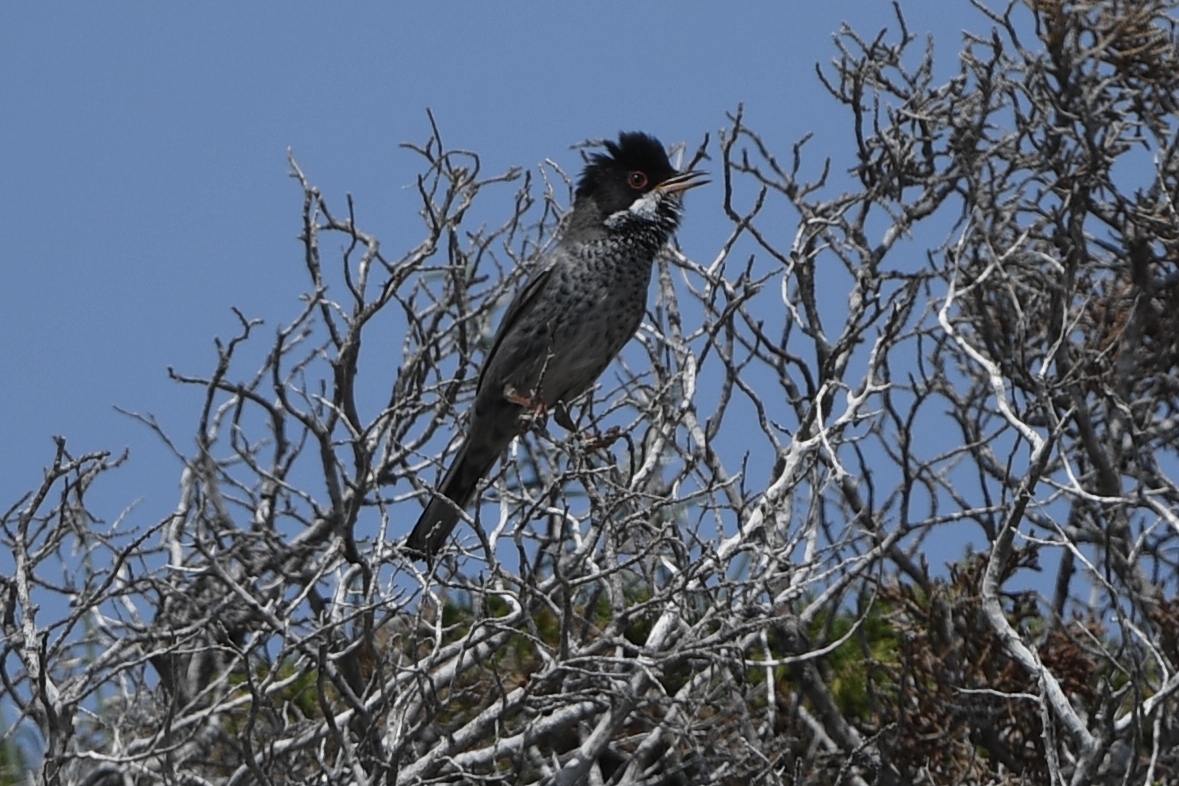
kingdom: Animalia
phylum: Chordata
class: Aves
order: Passeriformes
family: Sylviidae
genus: Sylvia
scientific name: Sylvia melanothorax
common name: Cyprus warbler
